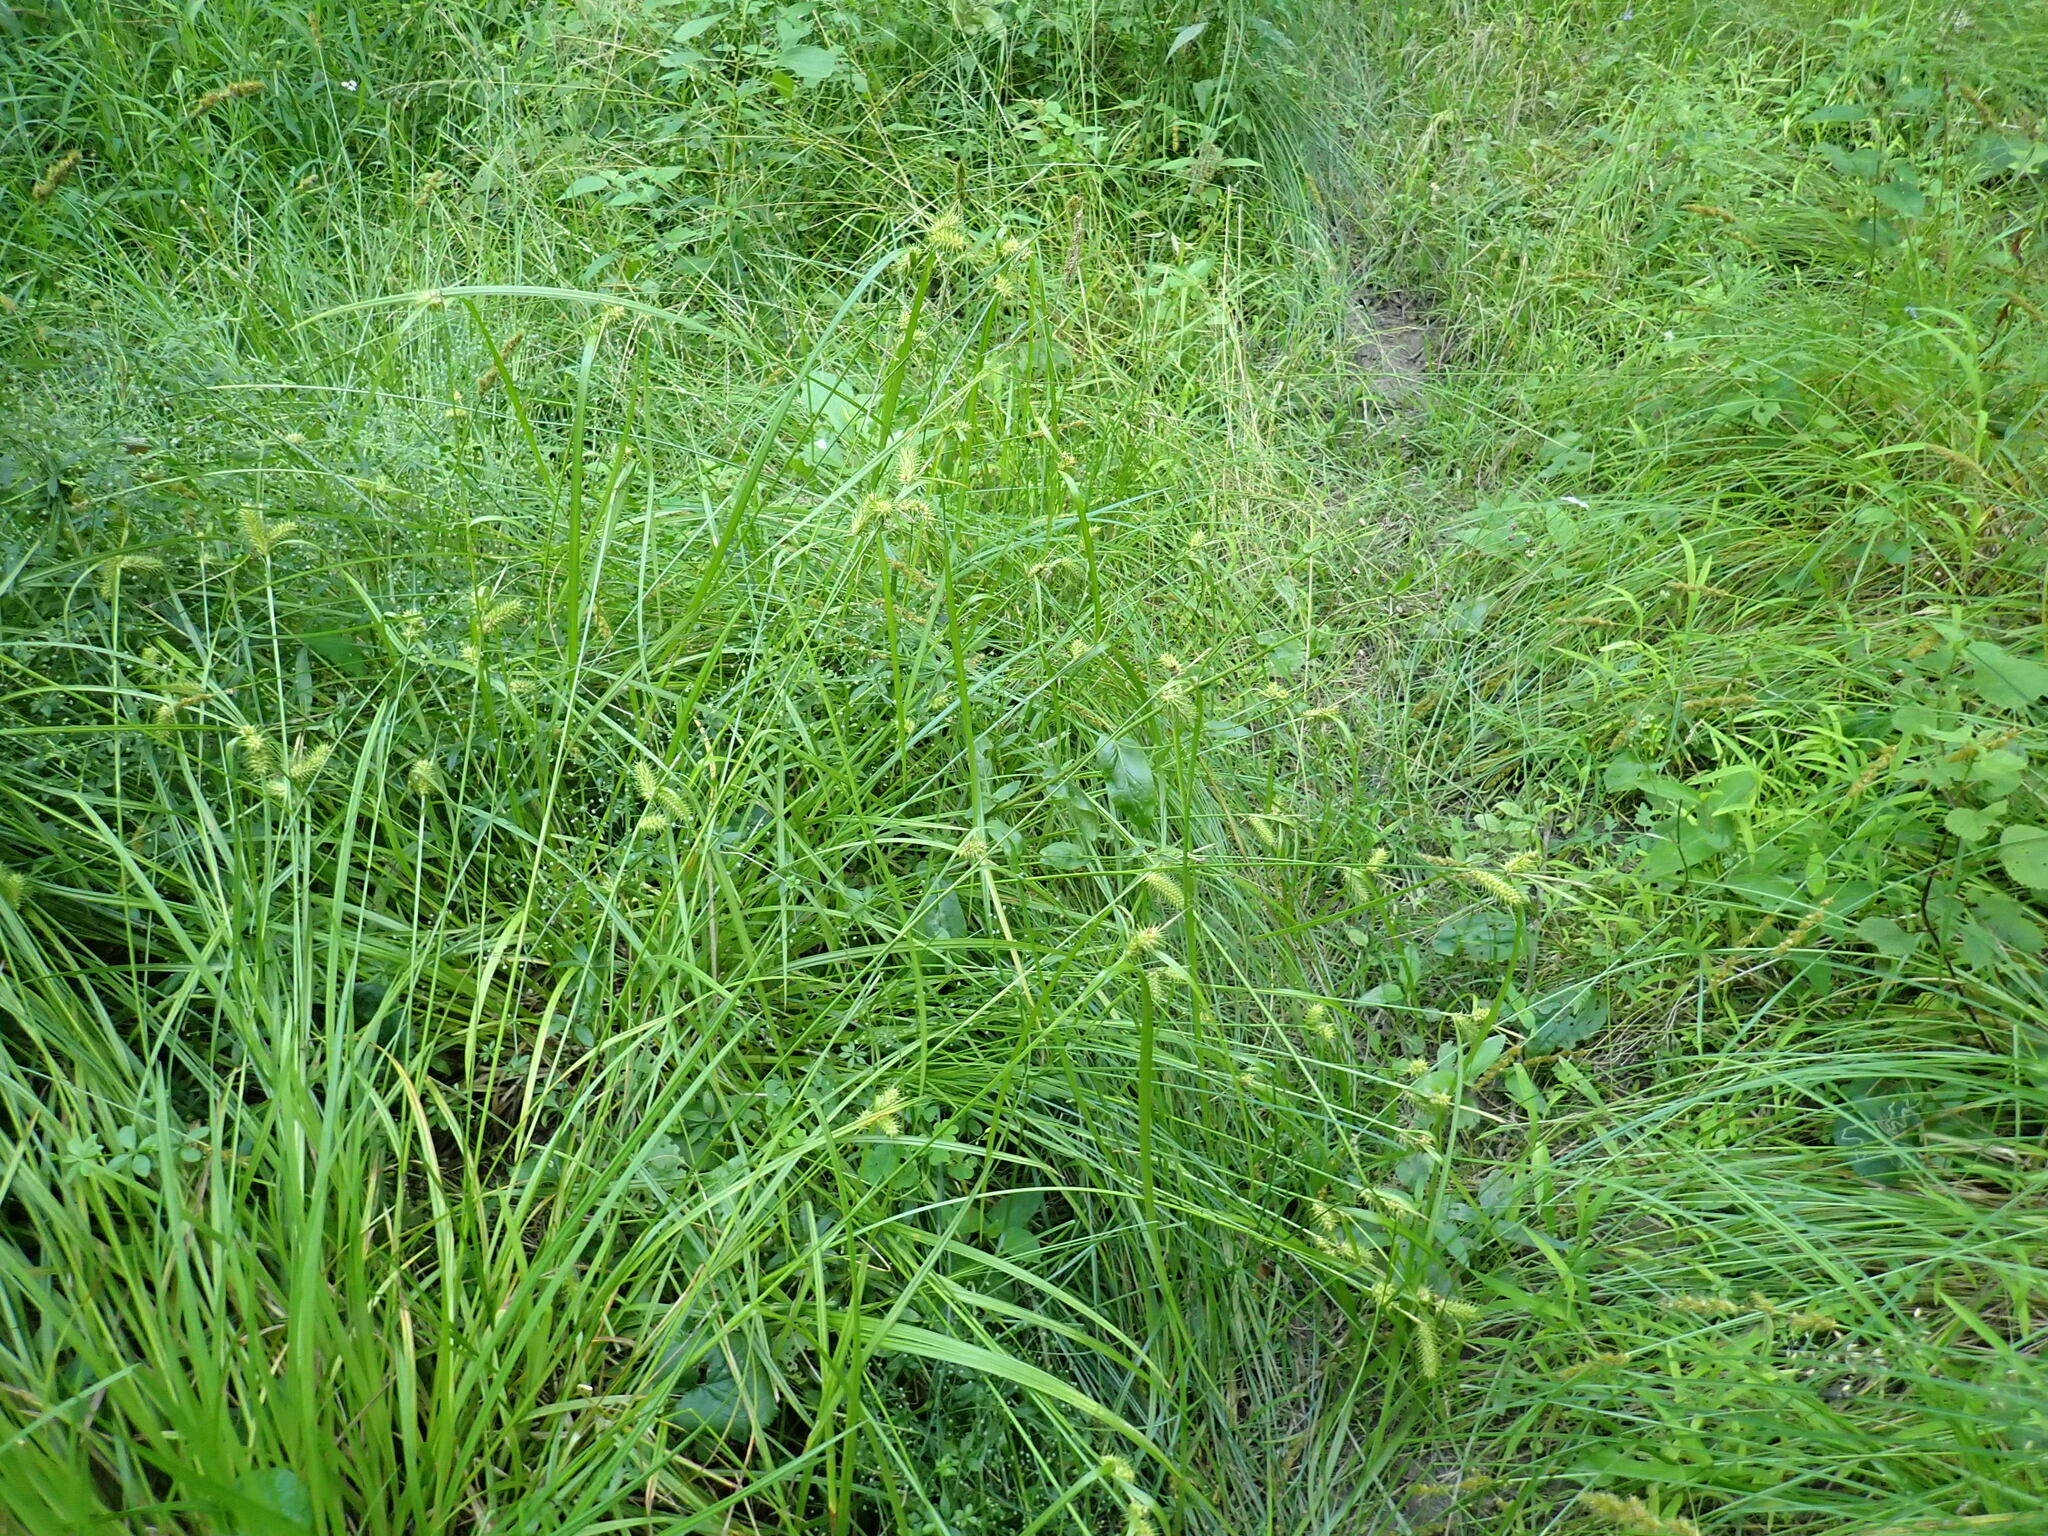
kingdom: Plantae
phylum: Tracheophyta
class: Liliopsida
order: Poales
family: Cyperaceae
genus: Carex
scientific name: Carex lurida
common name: Sallow sedge
